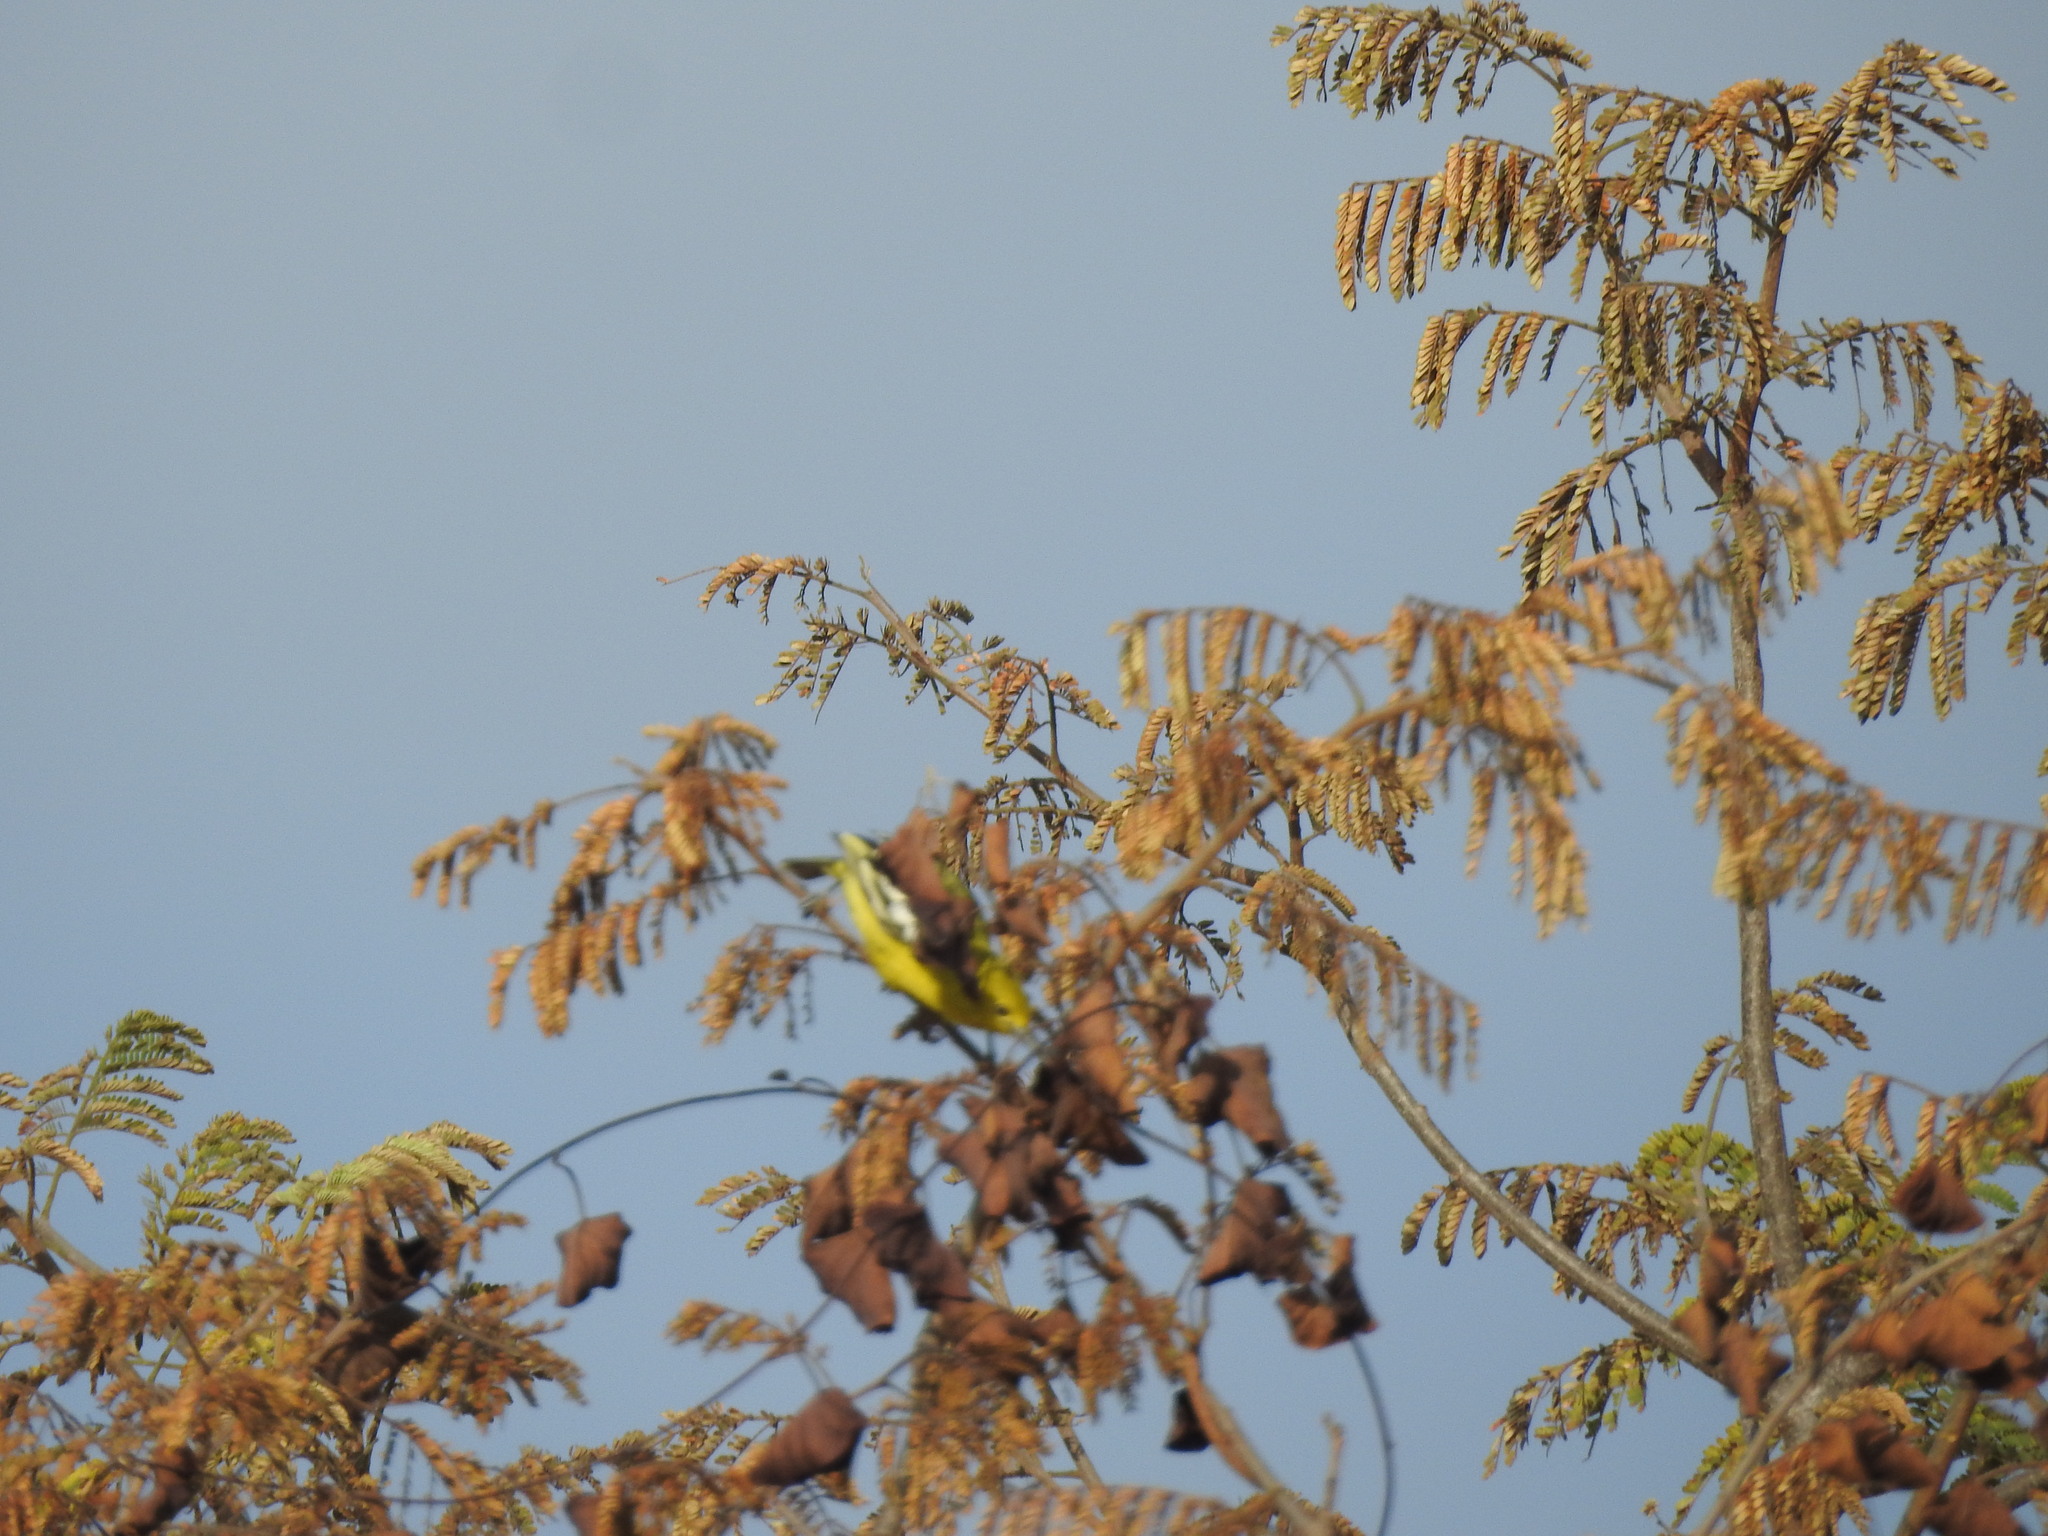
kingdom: Animalia
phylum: Chordata
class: Aves
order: Passeriformes
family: Aegithinidae
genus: Aegithina
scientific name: Aegithina tiphia
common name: Common iora
